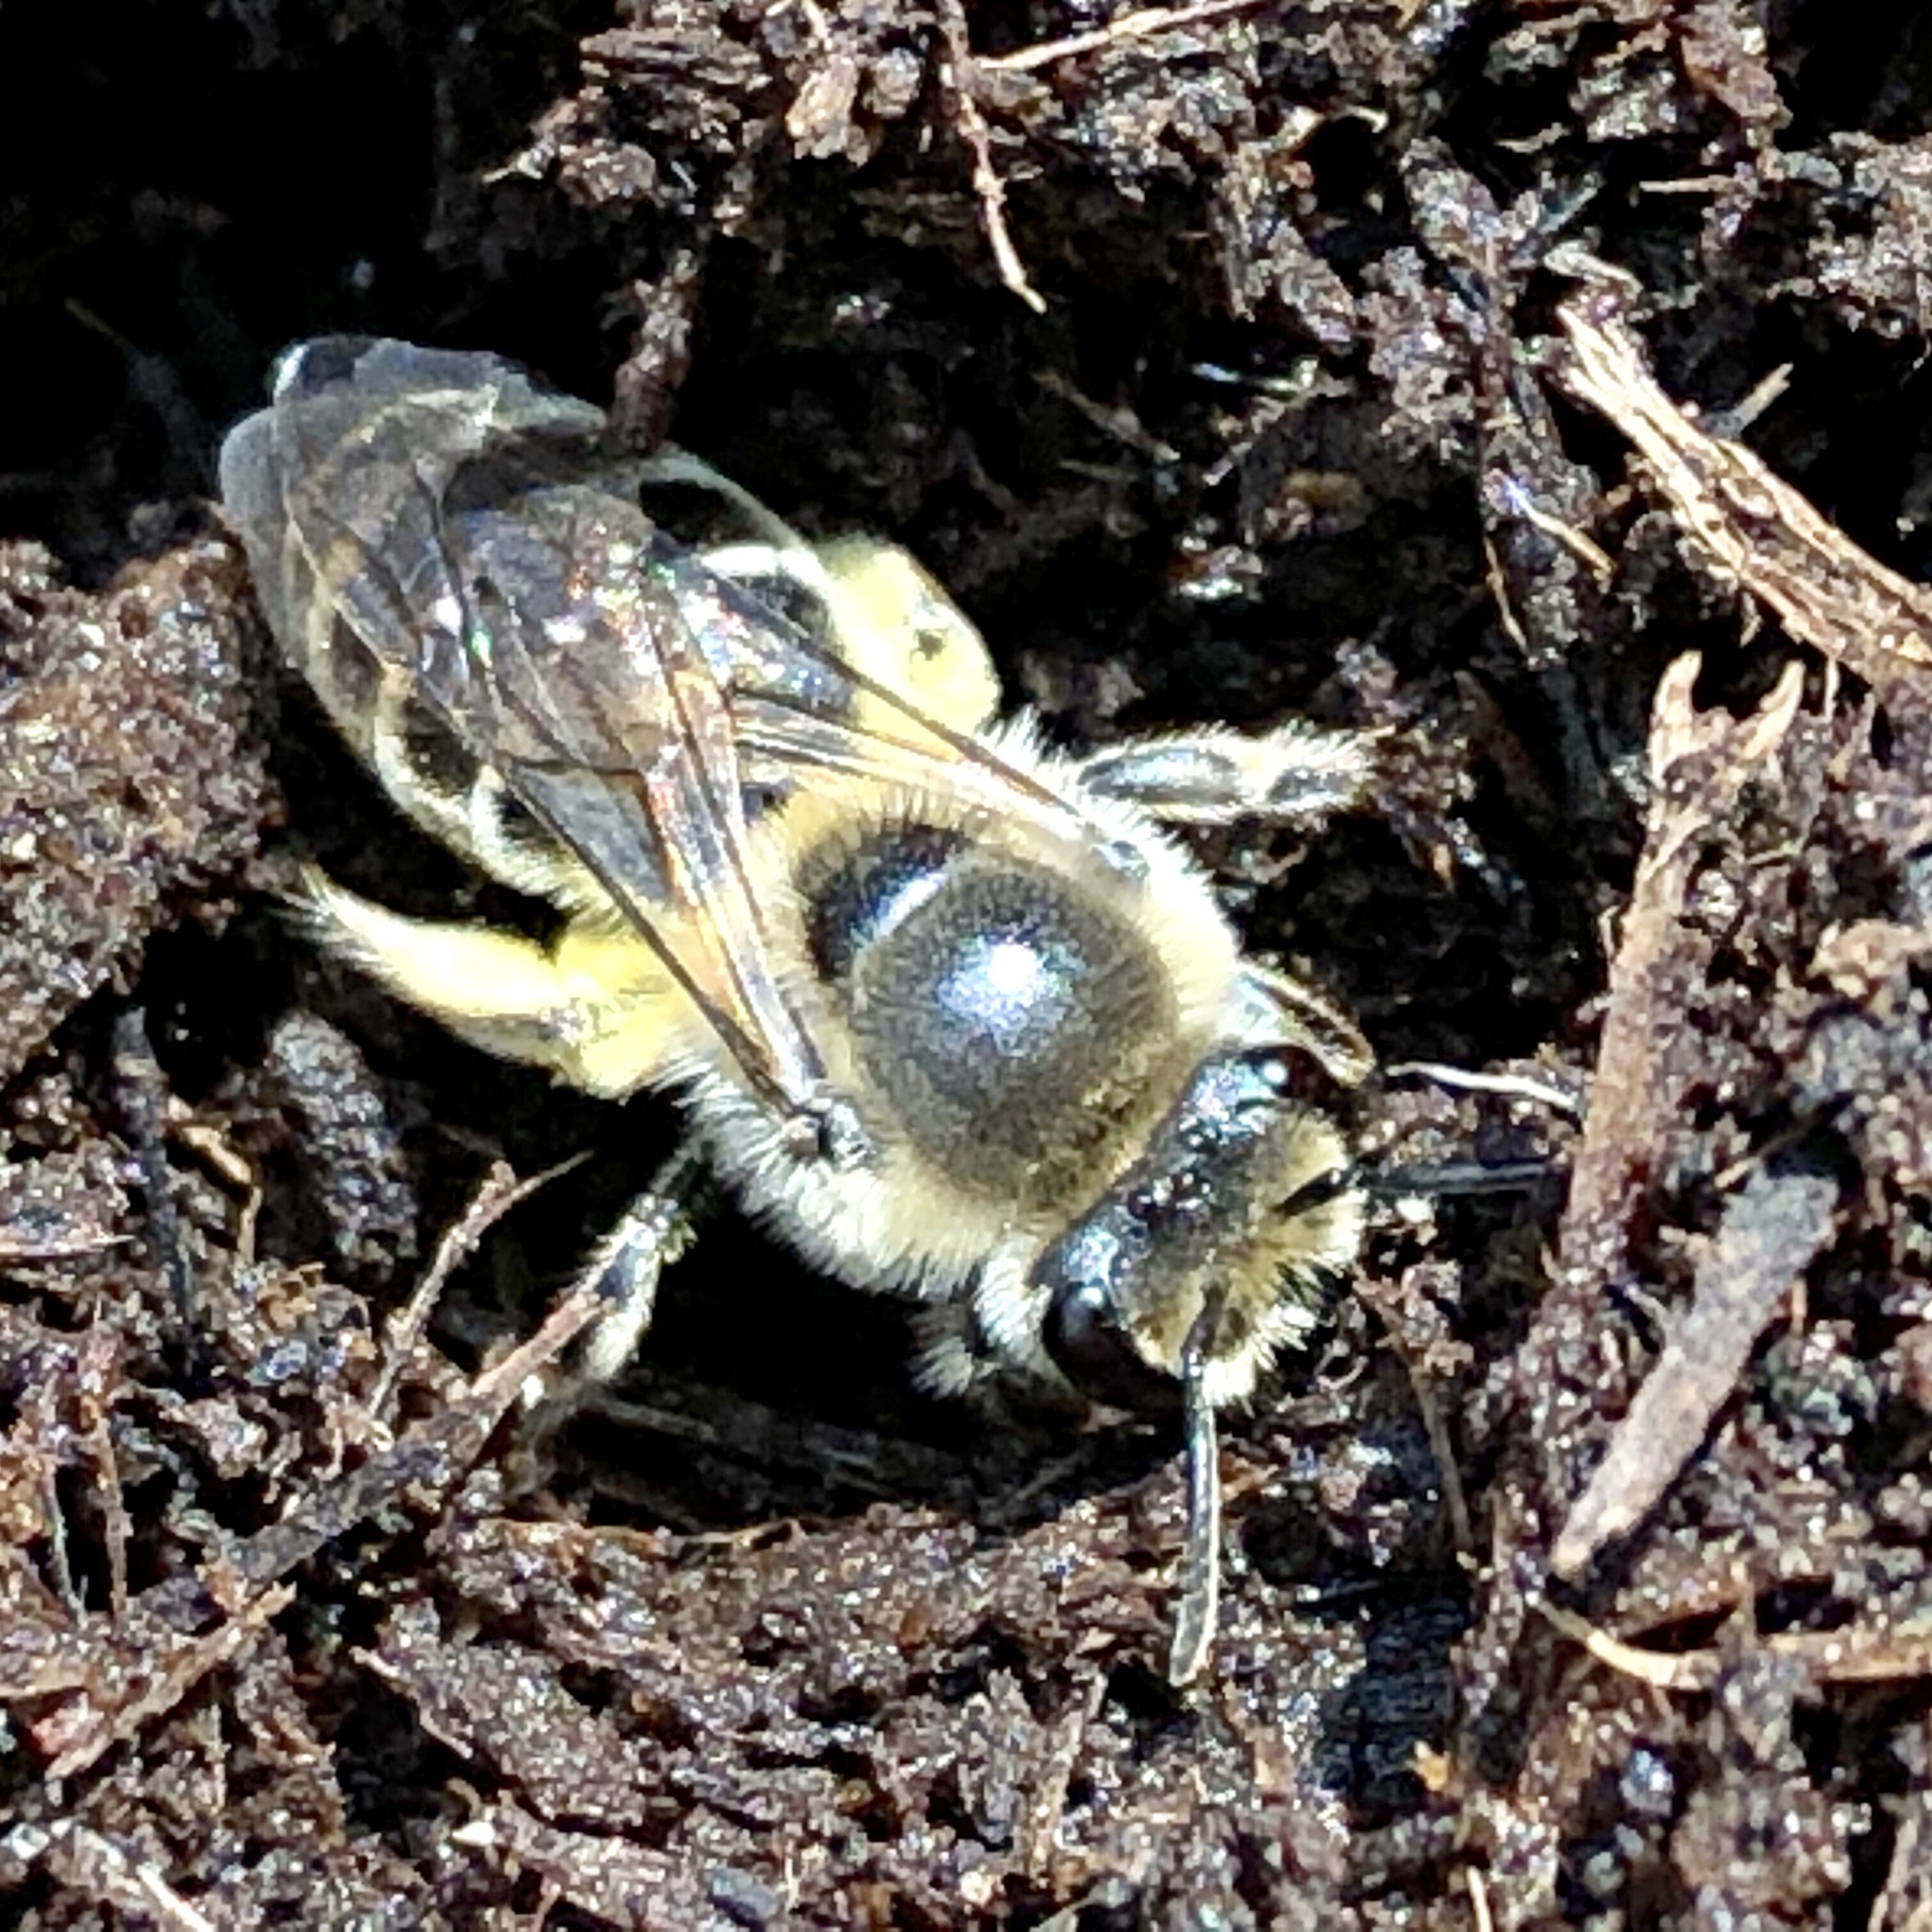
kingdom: Animalia
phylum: Arthropoda
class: Insecta
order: Hymenoptera
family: Colletidae
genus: Colletes
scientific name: Colletes inaequalis
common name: Unequal cellophane bee
